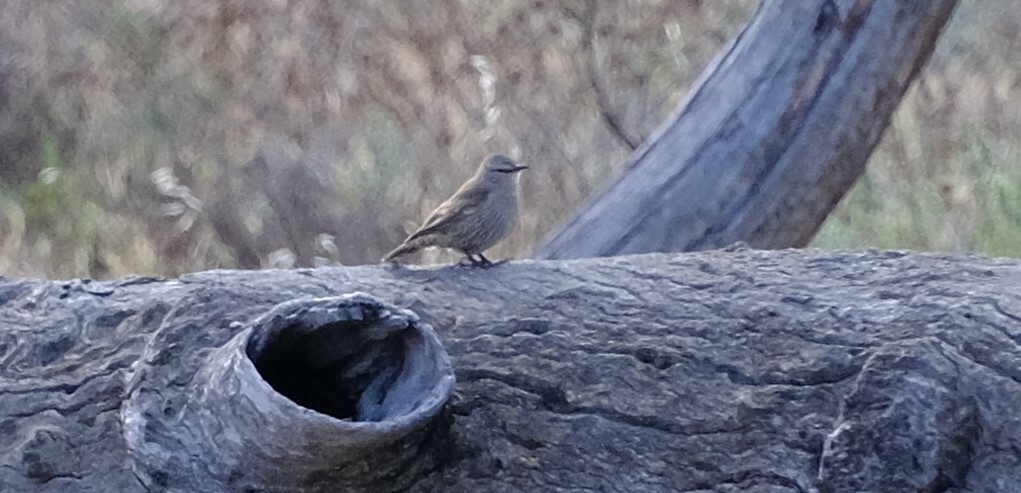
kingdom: Animalia
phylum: Chordata
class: Aves
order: Passeriformes
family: Climacteridae
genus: Climacteris
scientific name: Climacteris picumnus
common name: Brown treecreeper
